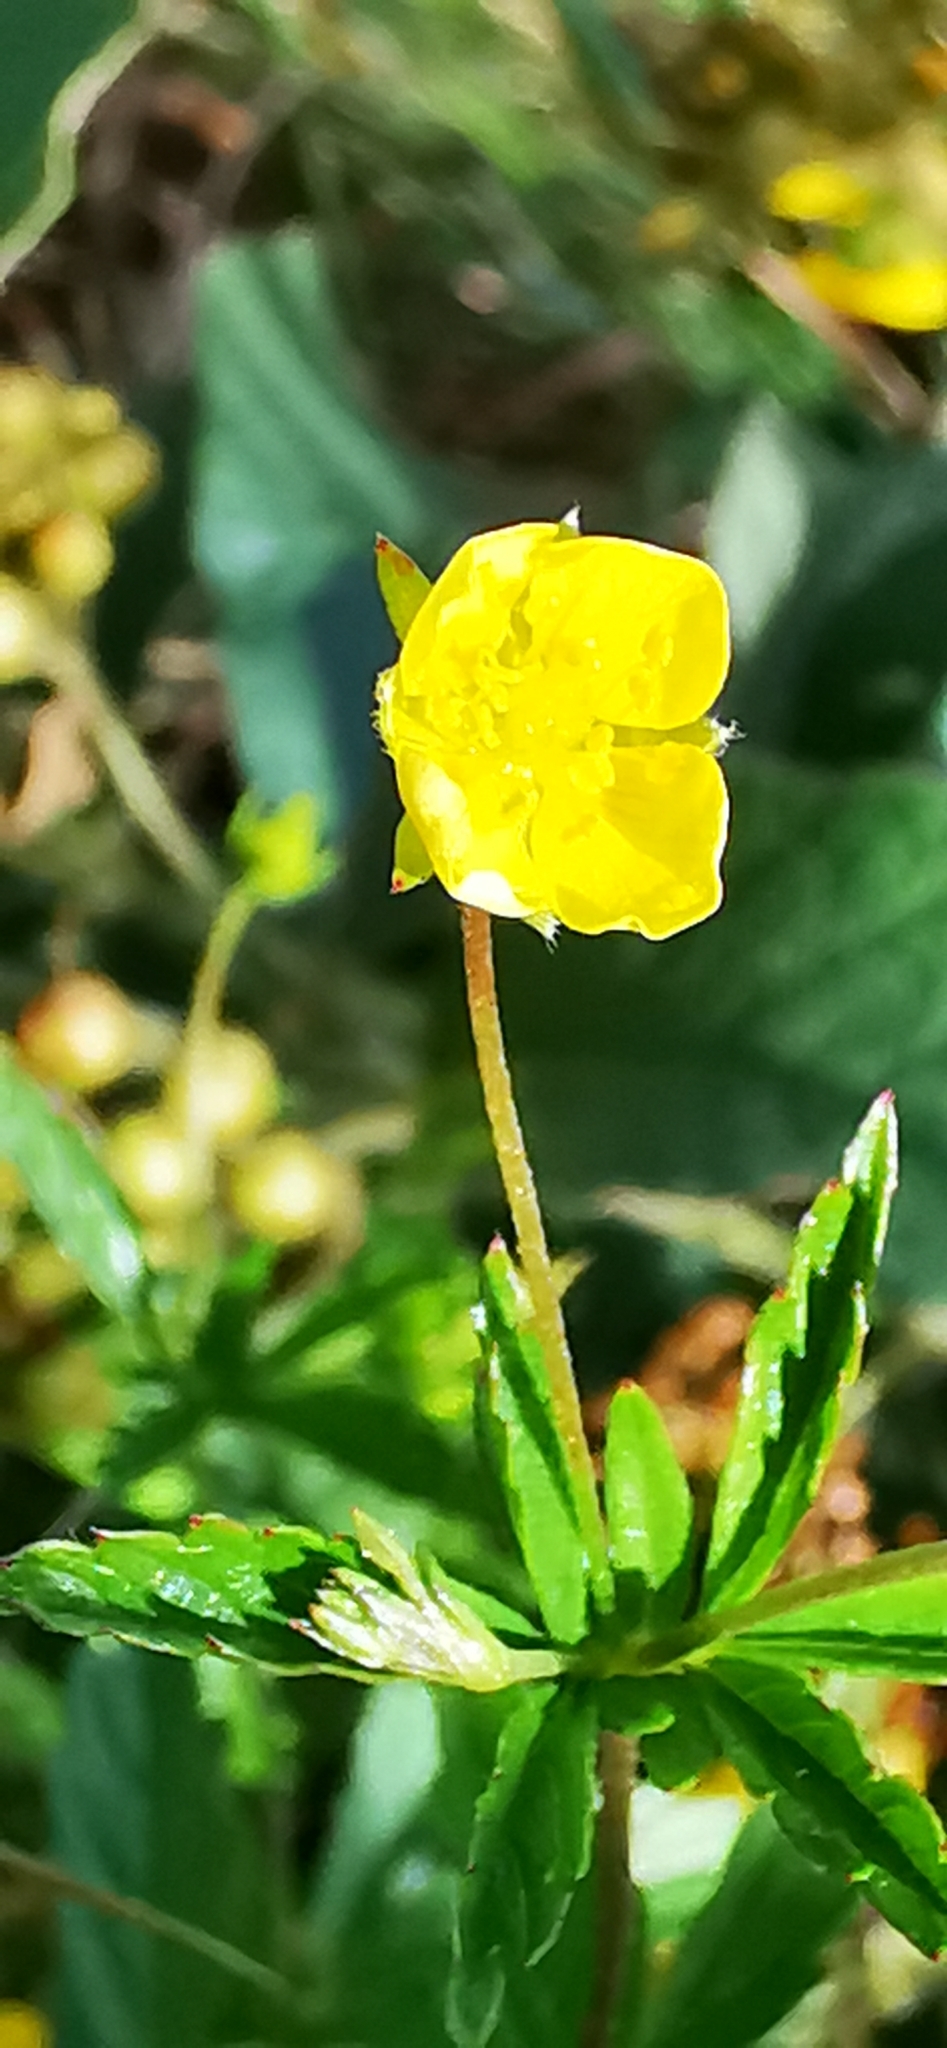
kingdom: Plantae
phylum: Tracheophyta
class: Magnoliopsida
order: Rosales
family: Rosaceae
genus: Potentilla
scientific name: Potentilla erecta
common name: Tormentil
